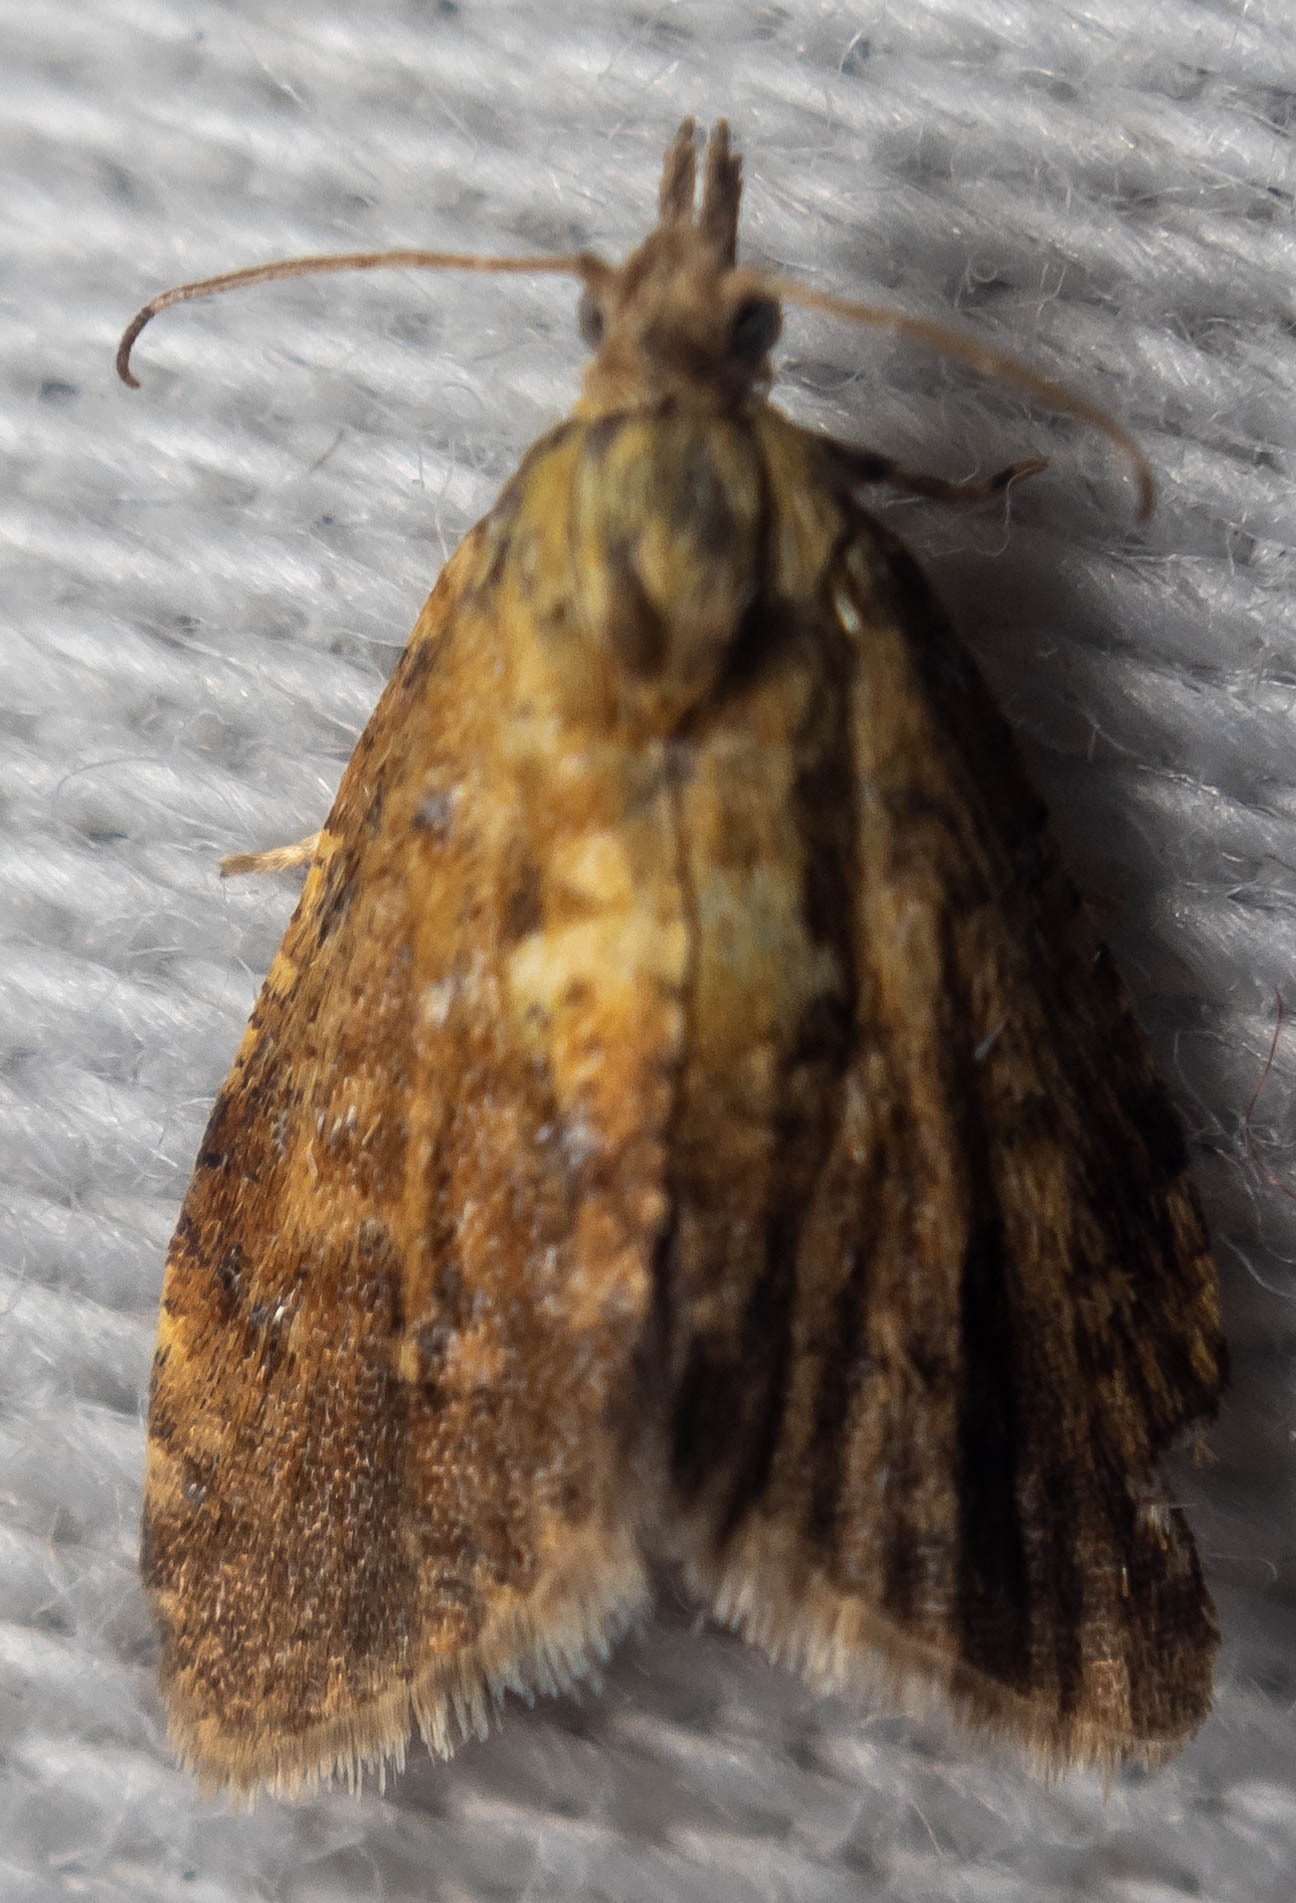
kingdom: Animalia
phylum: Arthropoda
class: Insecta
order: Lepidoptera
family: Tortricidae
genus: Pseudargyrotoza
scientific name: Pseudargyrotoza conwagana
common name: Yellow-spot twist
